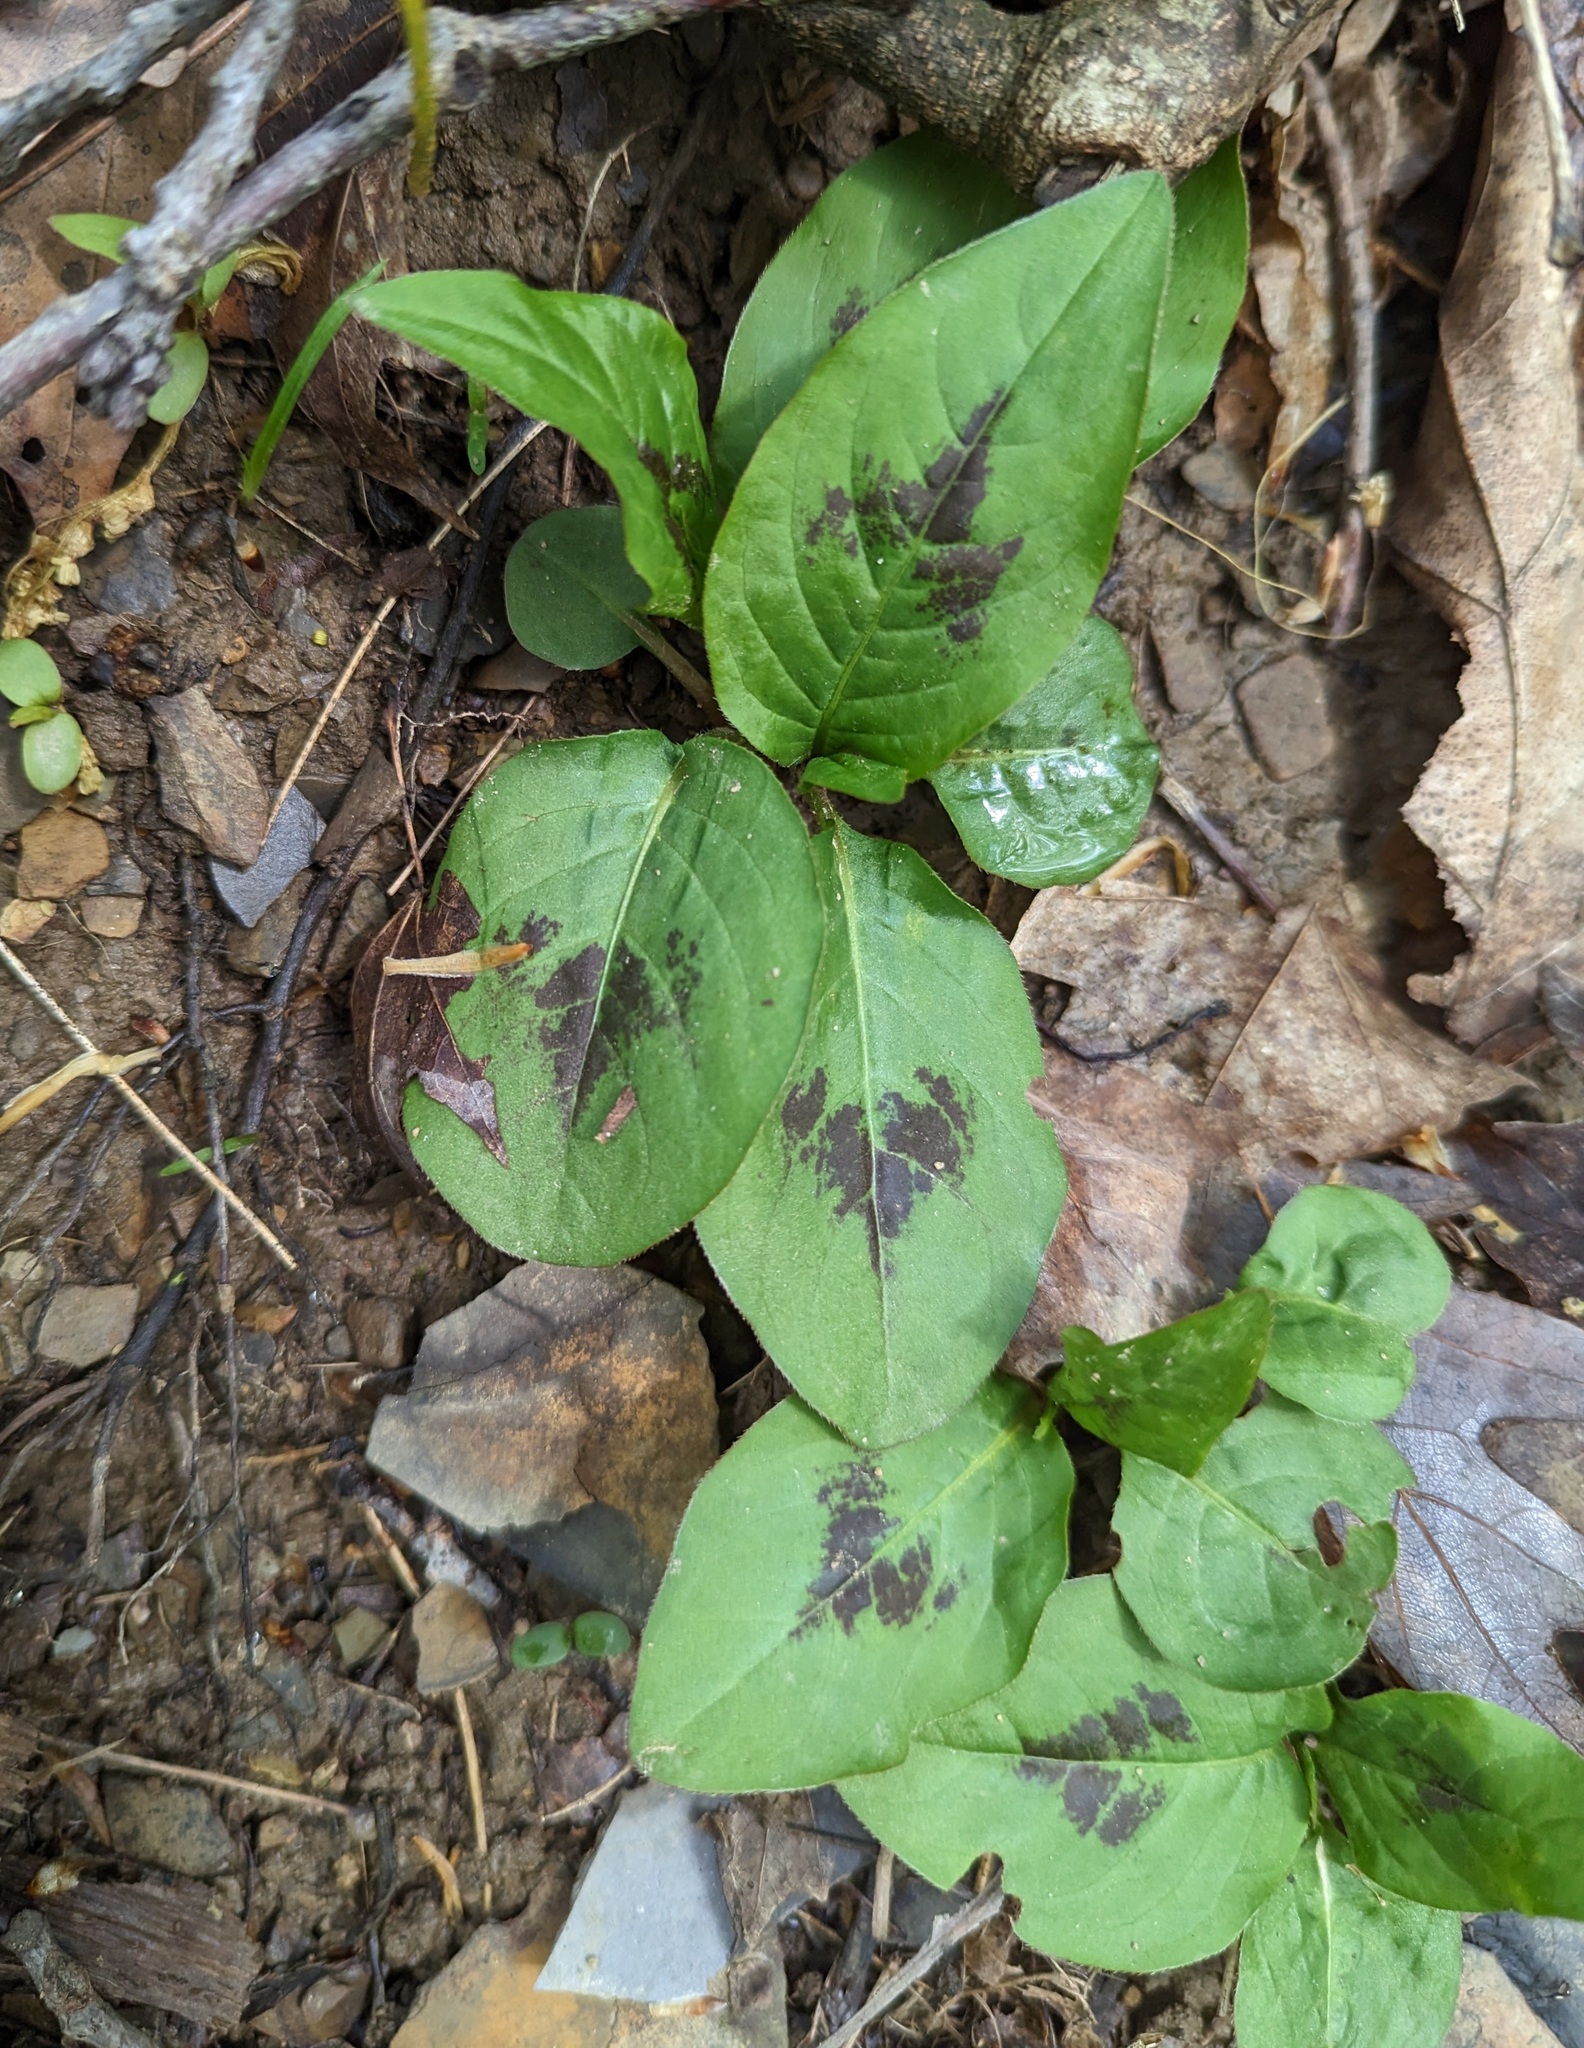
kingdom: Plantae
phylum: Tracheophyta
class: Magnoliopsida
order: Caryophyllales
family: Polygonaceae
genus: Persicaria
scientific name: Persicaria virginiana
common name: Jumpseed
